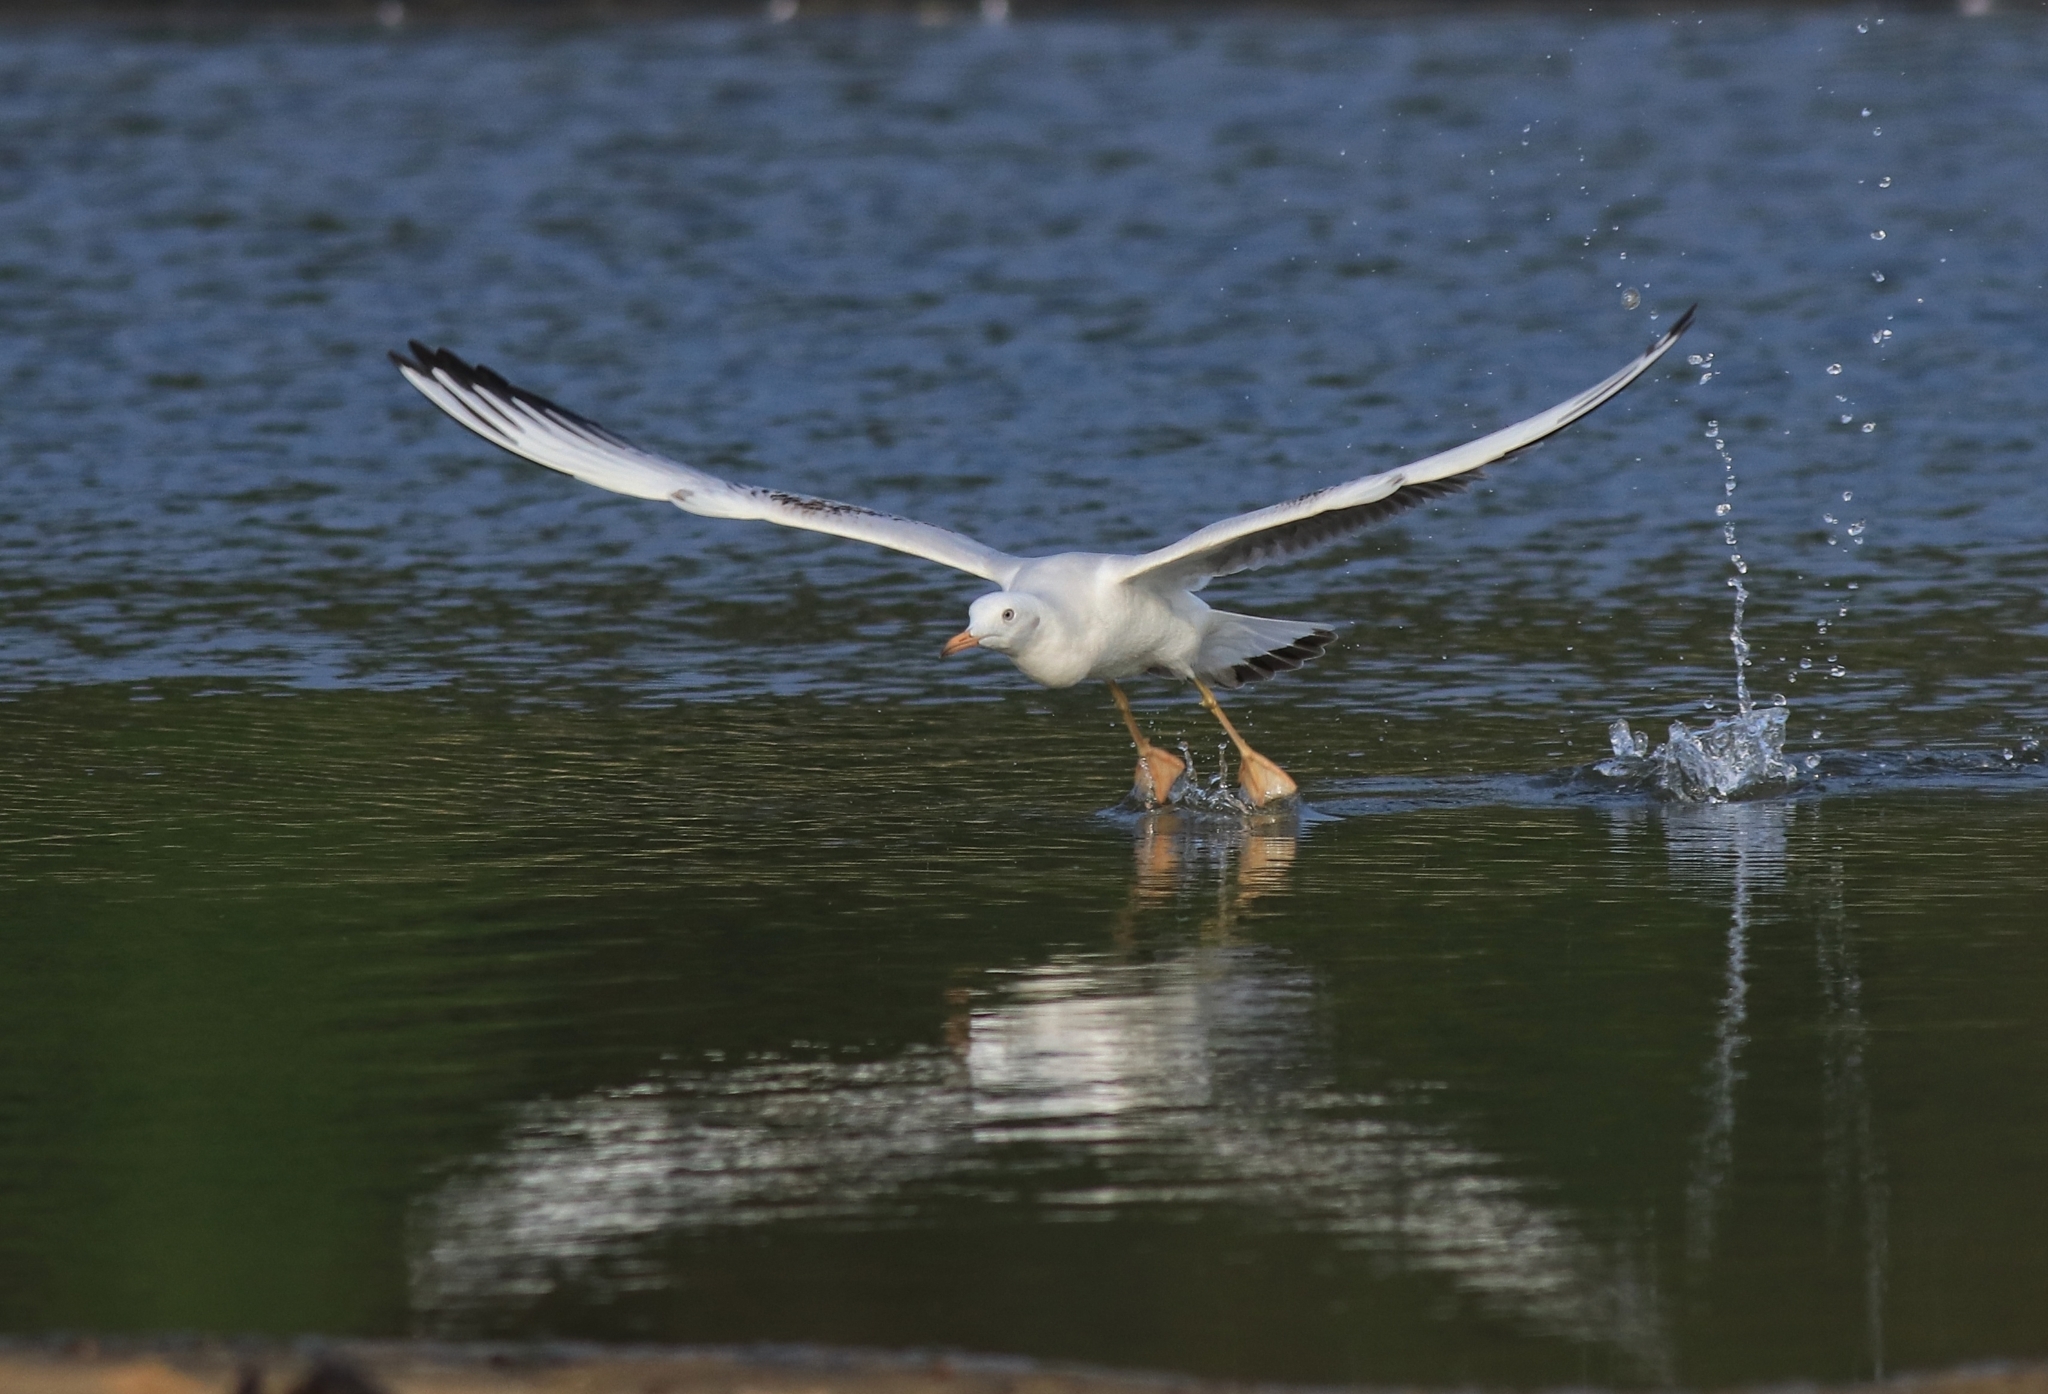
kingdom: Animalia
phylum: Chordata
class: Aves
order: Charadriiformes
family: Laridae
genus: Chroicocephalus
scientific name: Chroicocephalus genei
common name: Slender-billed gull
